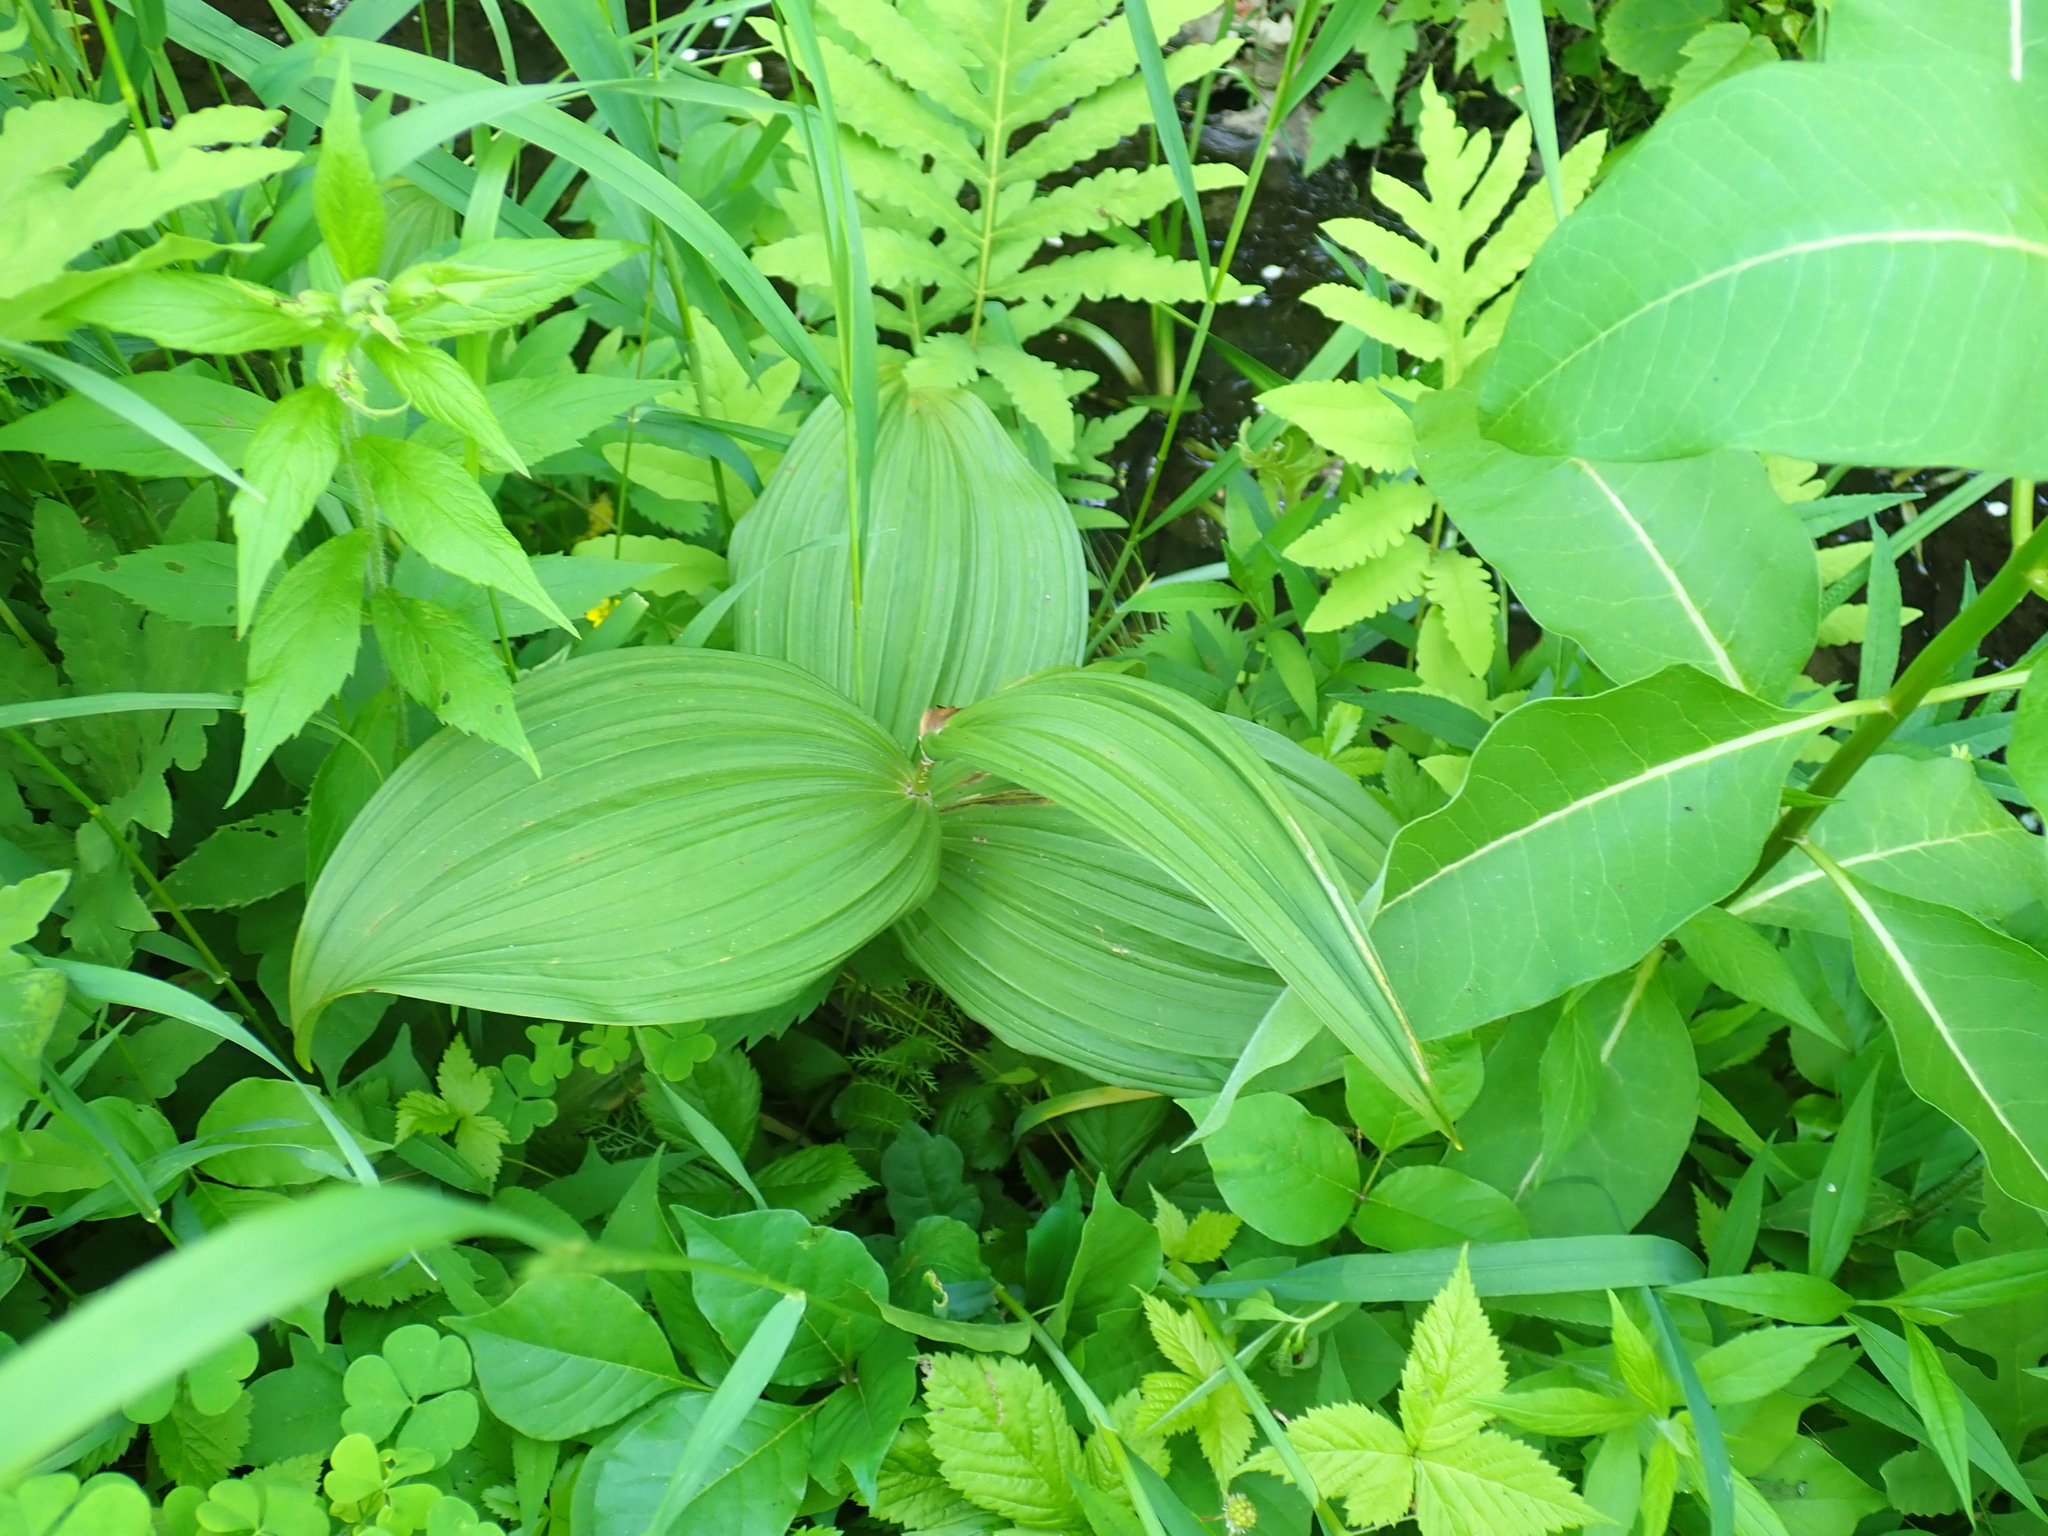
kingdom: Plantae
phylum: Tracheophyta
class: Liliopsida
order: Liliales
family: Melanthiaceae
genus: Veratrum
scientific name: Veratrum viride
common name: American false hellebore
